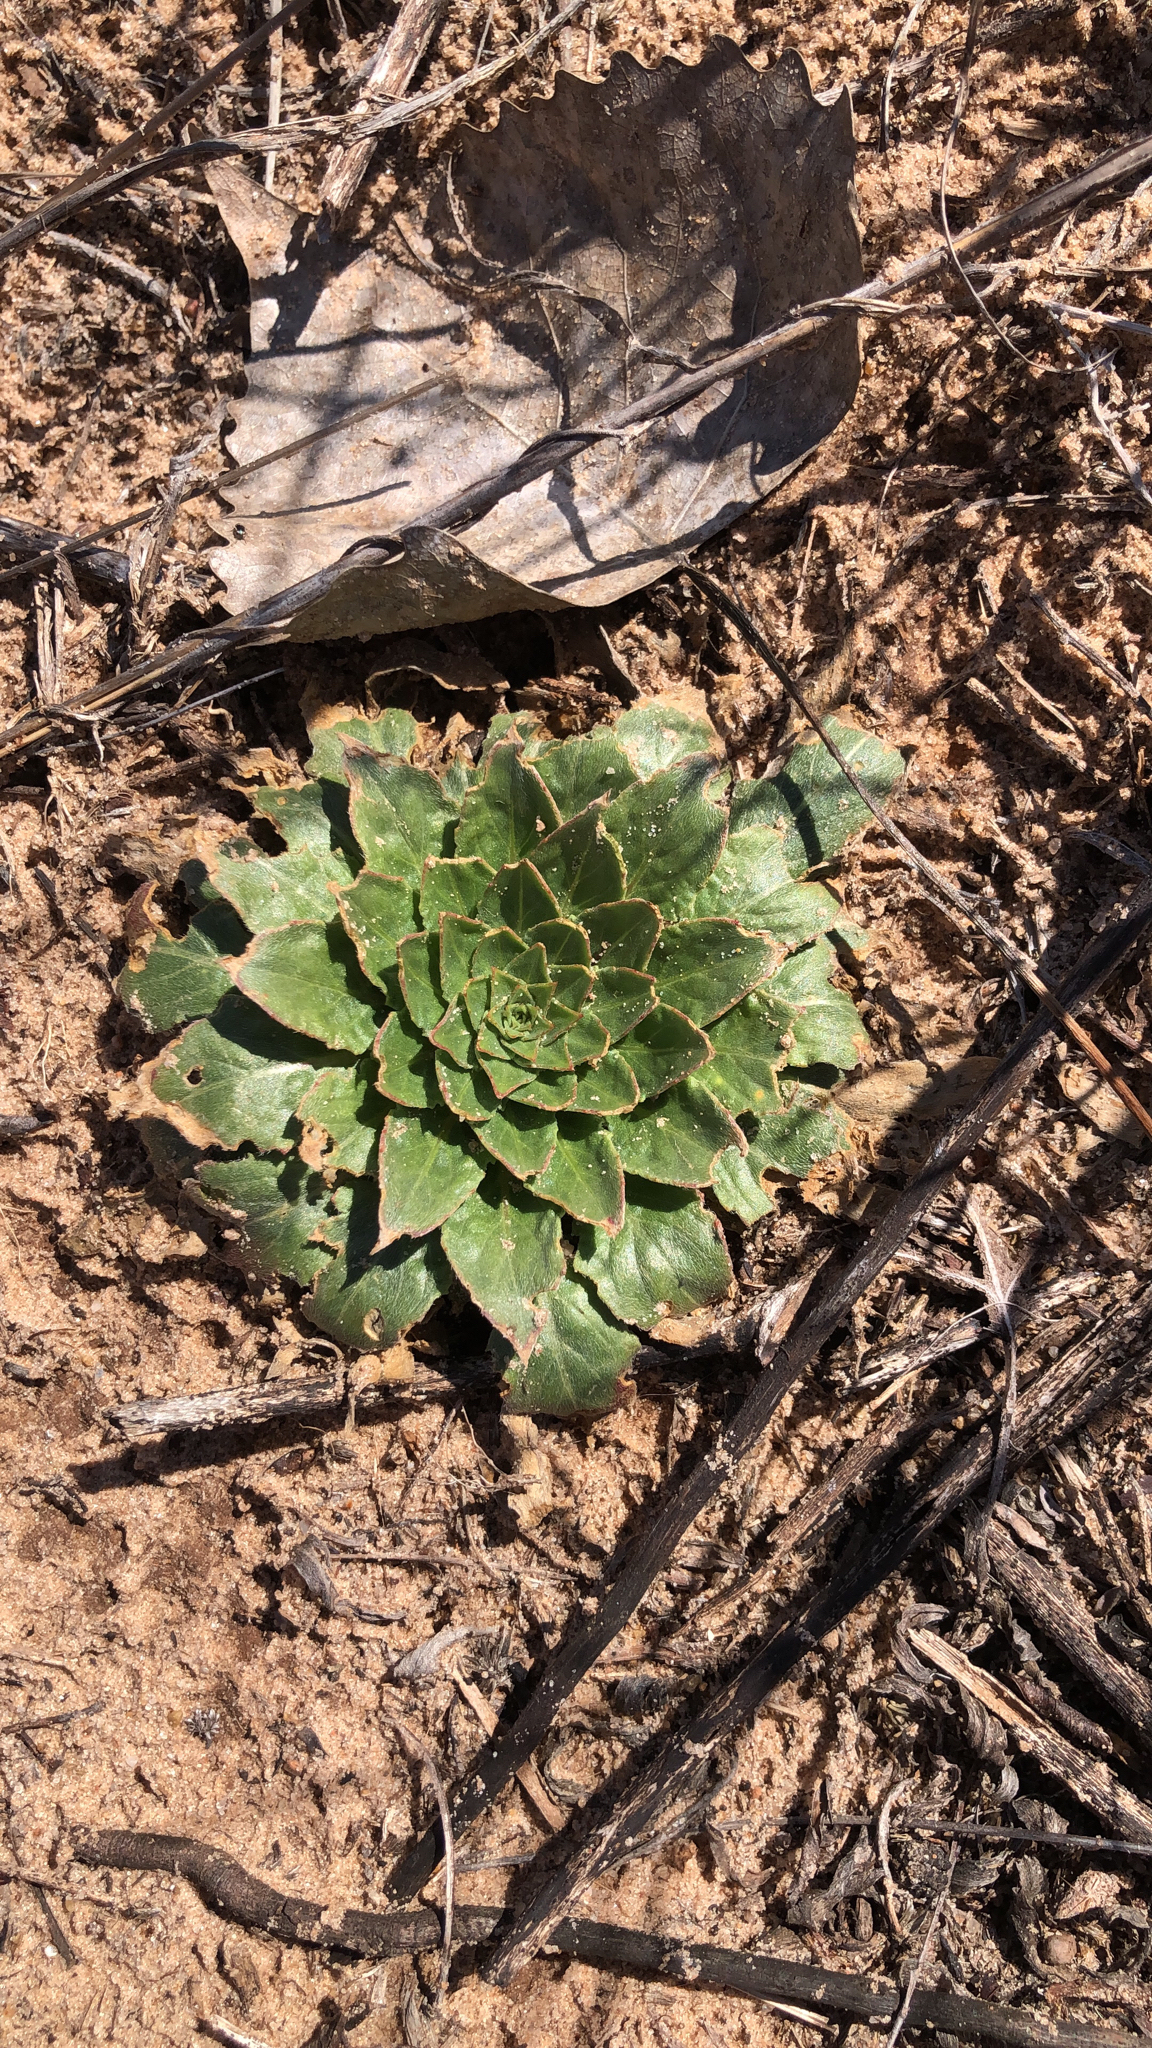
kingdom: Plantae
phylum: Tracheophyta
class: Magnoliopsida
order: Myrtales
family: Onagraceae
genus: Oenothera
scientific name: Oenothera biennis
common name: Common evening-primrose
